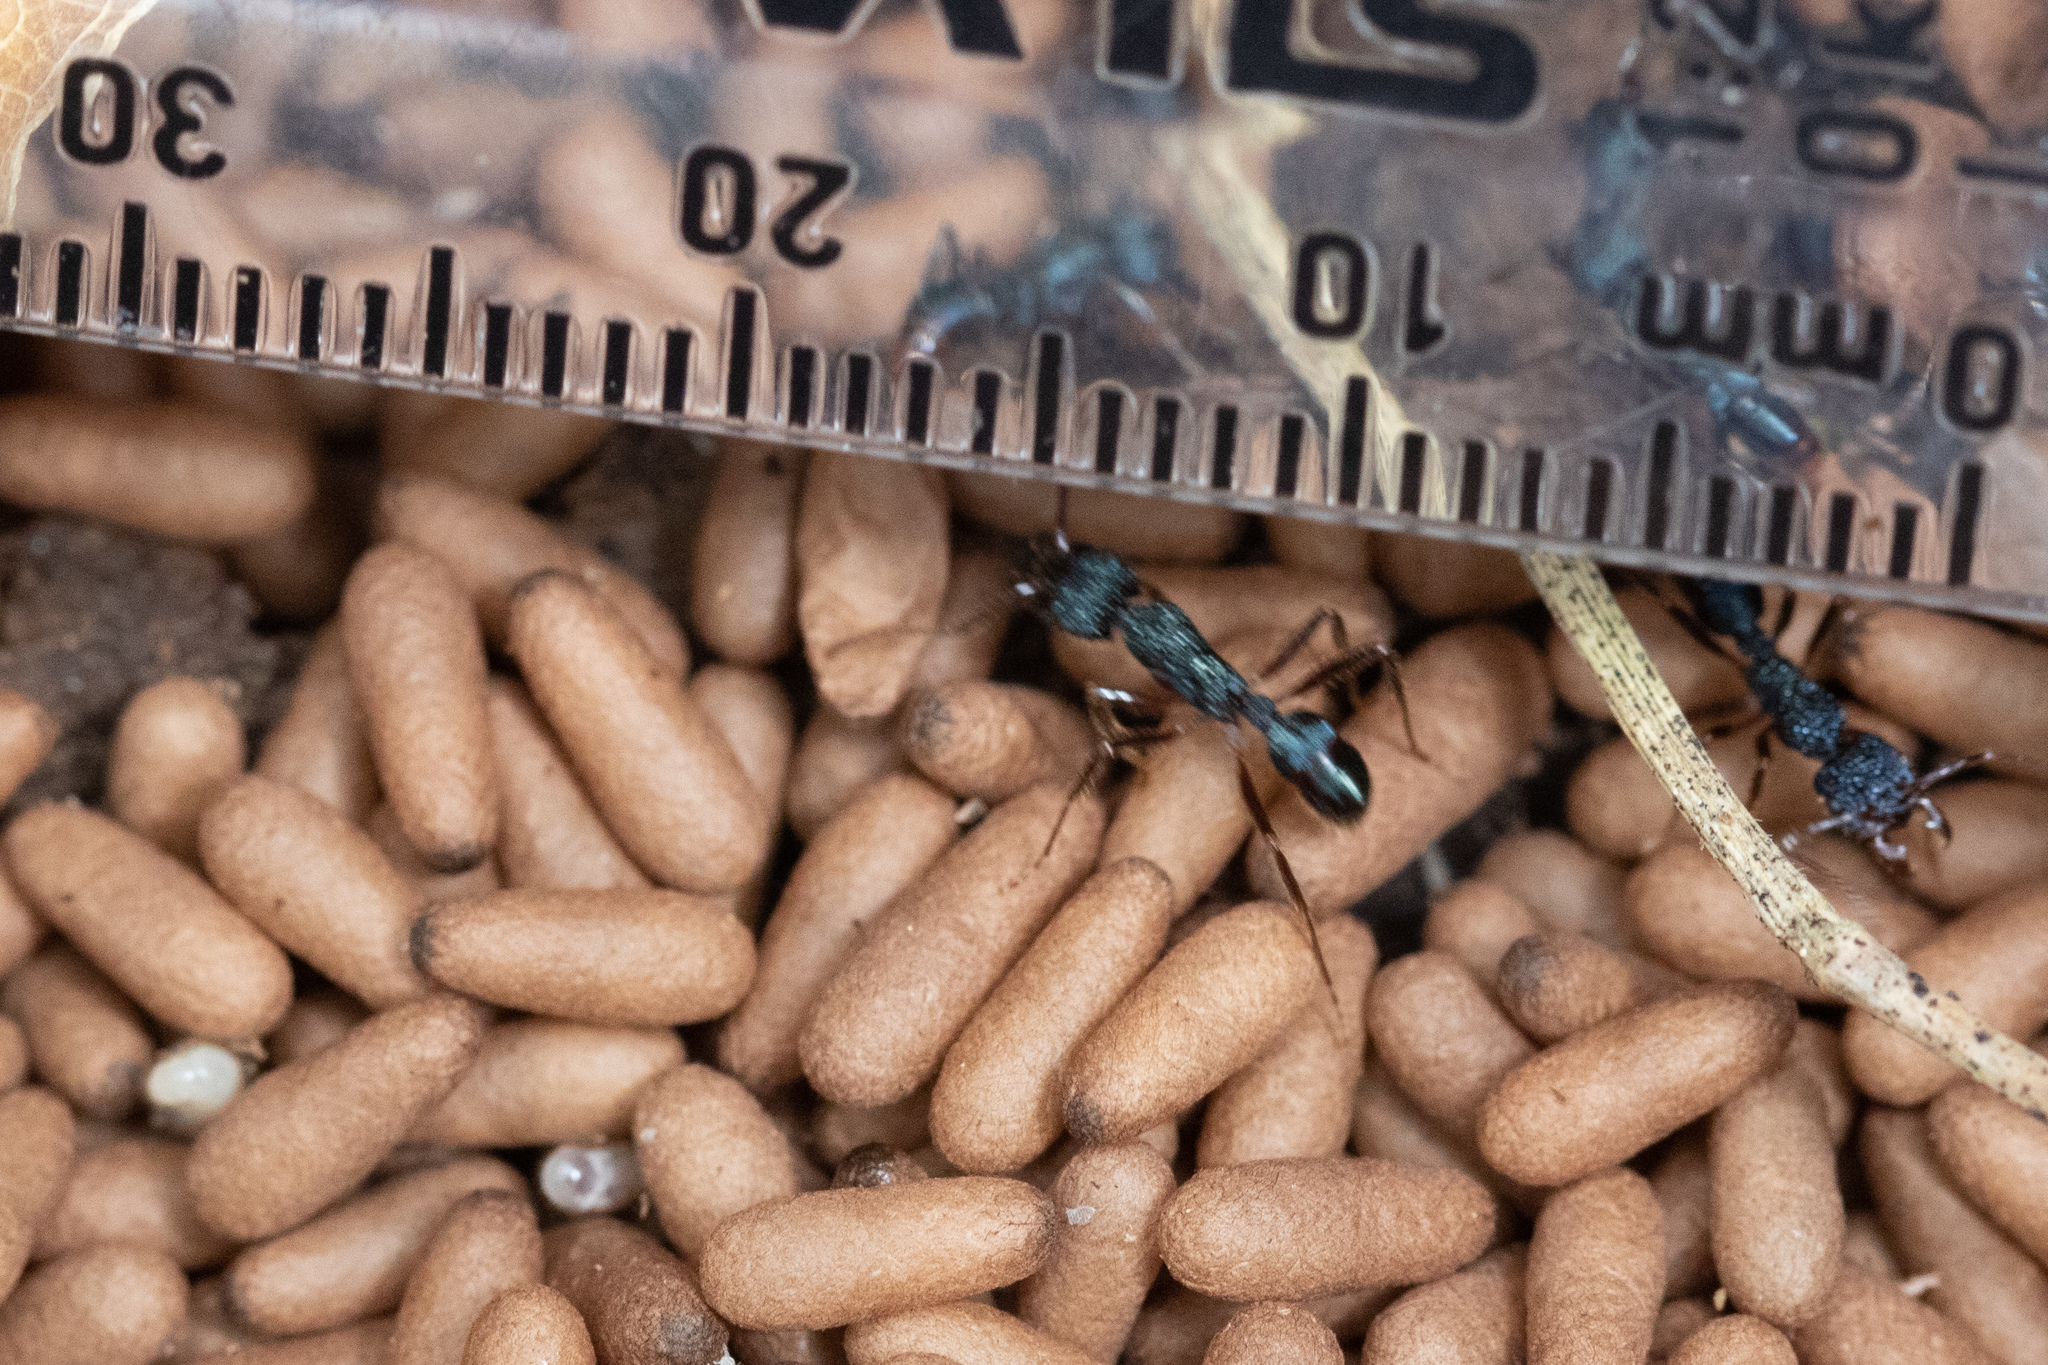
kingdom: Animalia
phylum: Arthropoda
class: Insecta
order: Hymenoptera
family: Formicidae
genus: Rhytidoponera
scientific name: Rhytidoponera chalybaea
